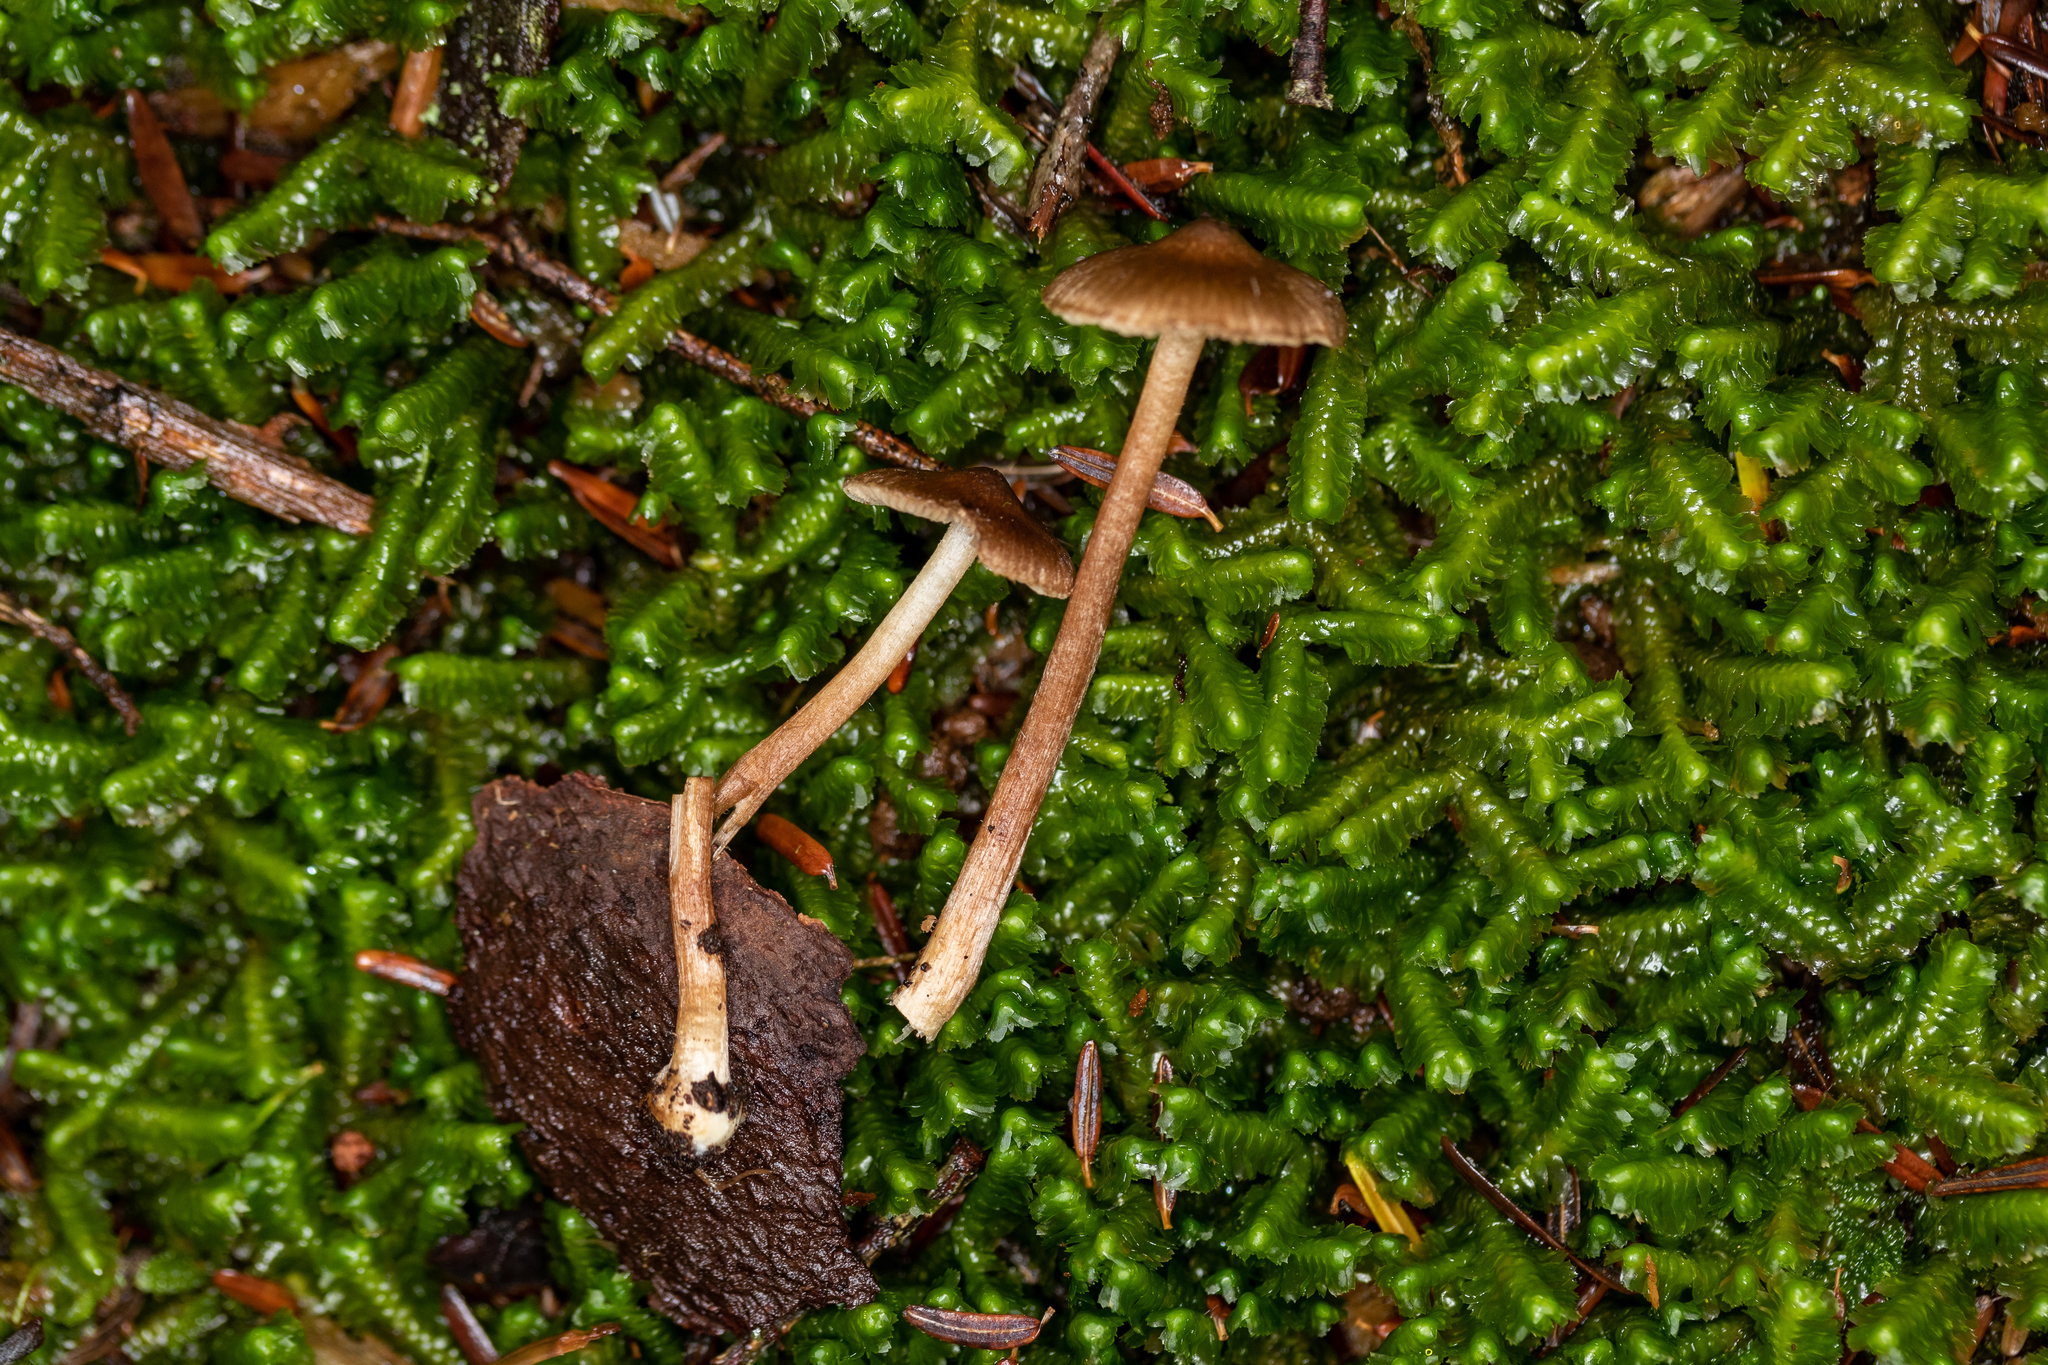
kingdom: Fungi
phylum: Basidiomycota
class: Agaricomycetes
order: Agaricales
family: Inocybaceae
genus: Inocybe
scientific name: Inocybe napipes
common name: Bulbous fibrecap
